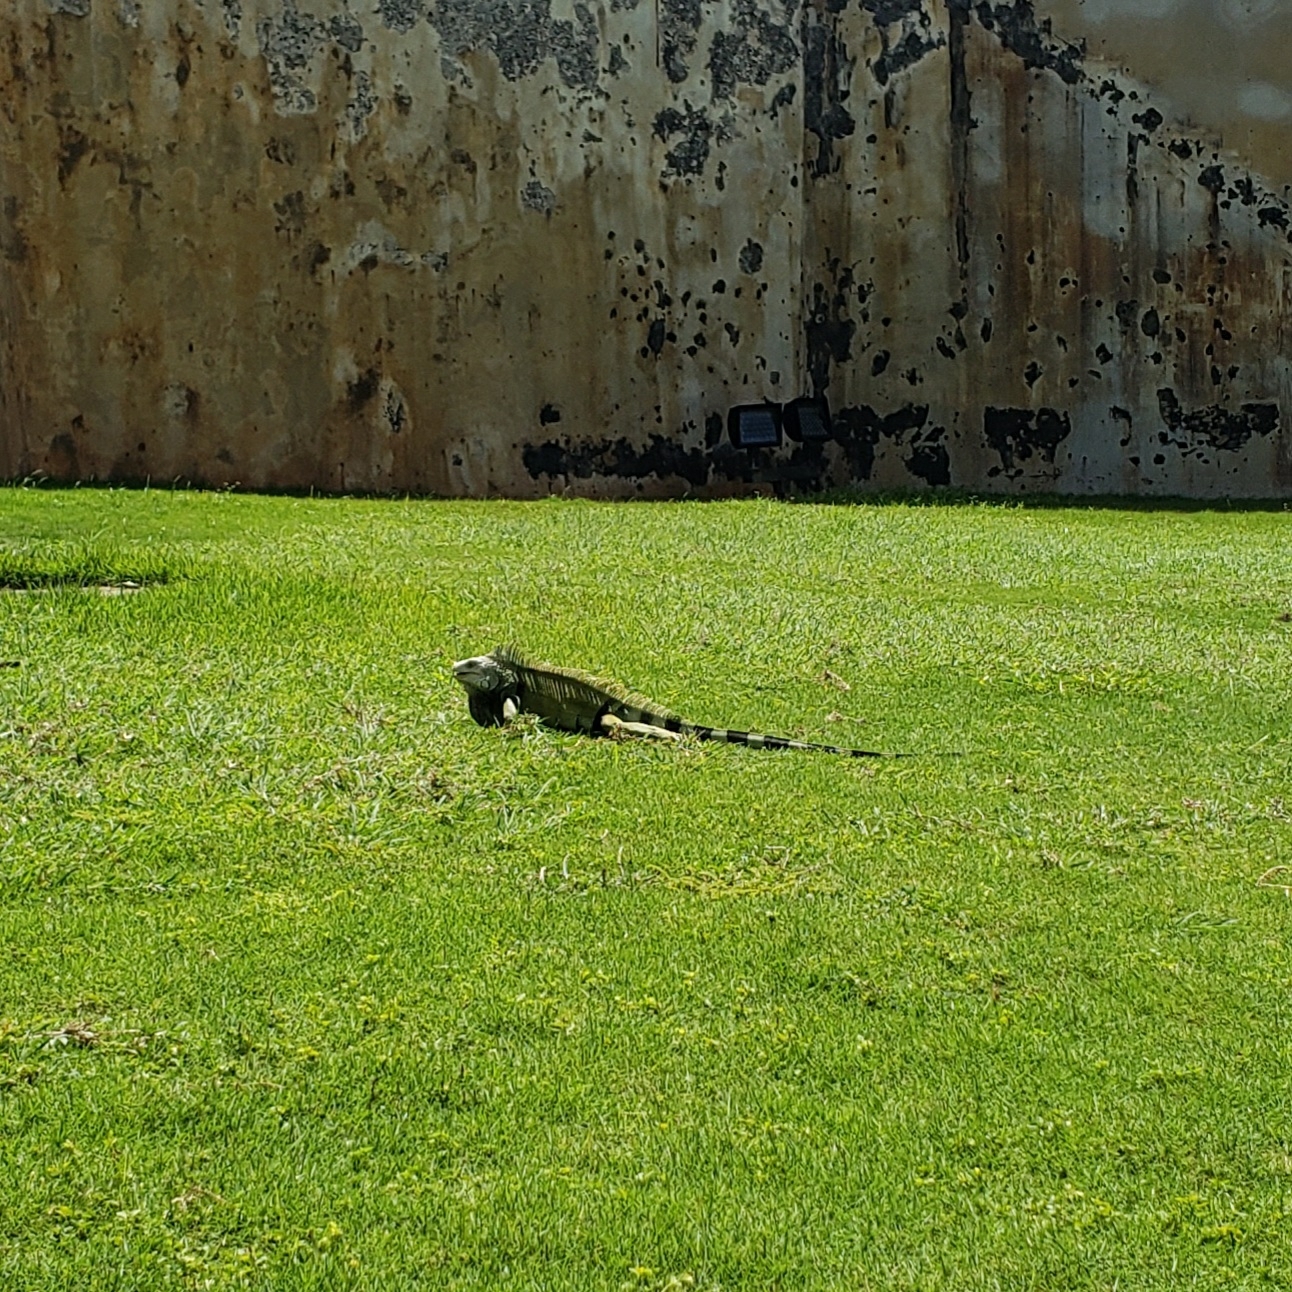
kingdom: Animalia
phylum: Chordata
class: Squamata
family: Iguanidae
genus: Iguana
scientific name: Iguana iguana
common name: Green iguana
